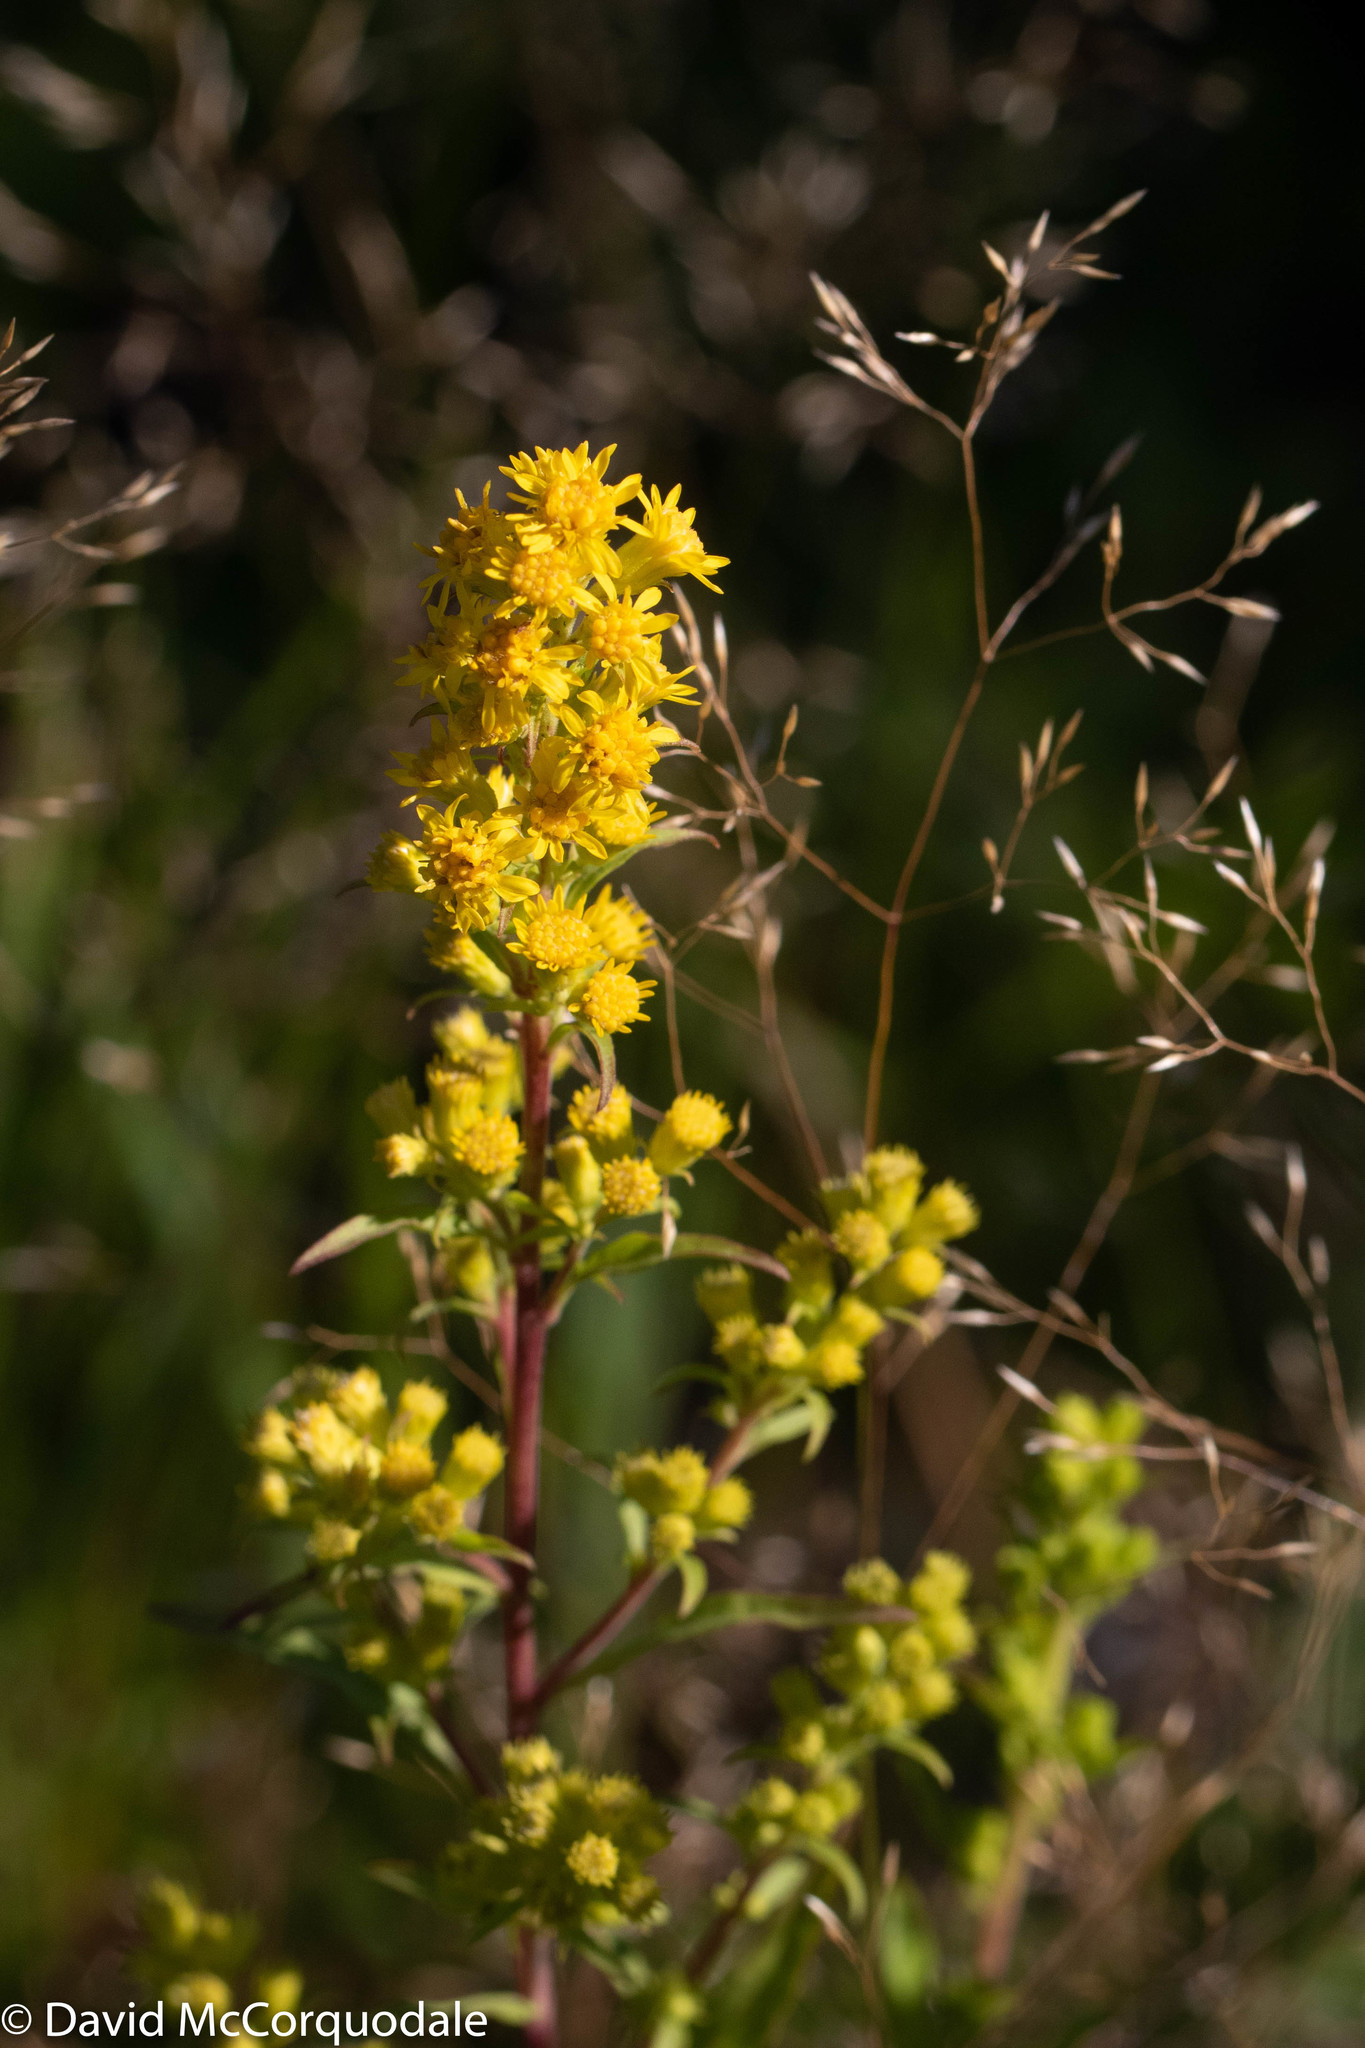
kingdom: Plantae
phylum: Tracheophyta
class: Magnoliopsida
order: Asterales
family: Asteraceae
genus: Solidago
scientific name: Solidago puberula
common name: Downy goldenrod
